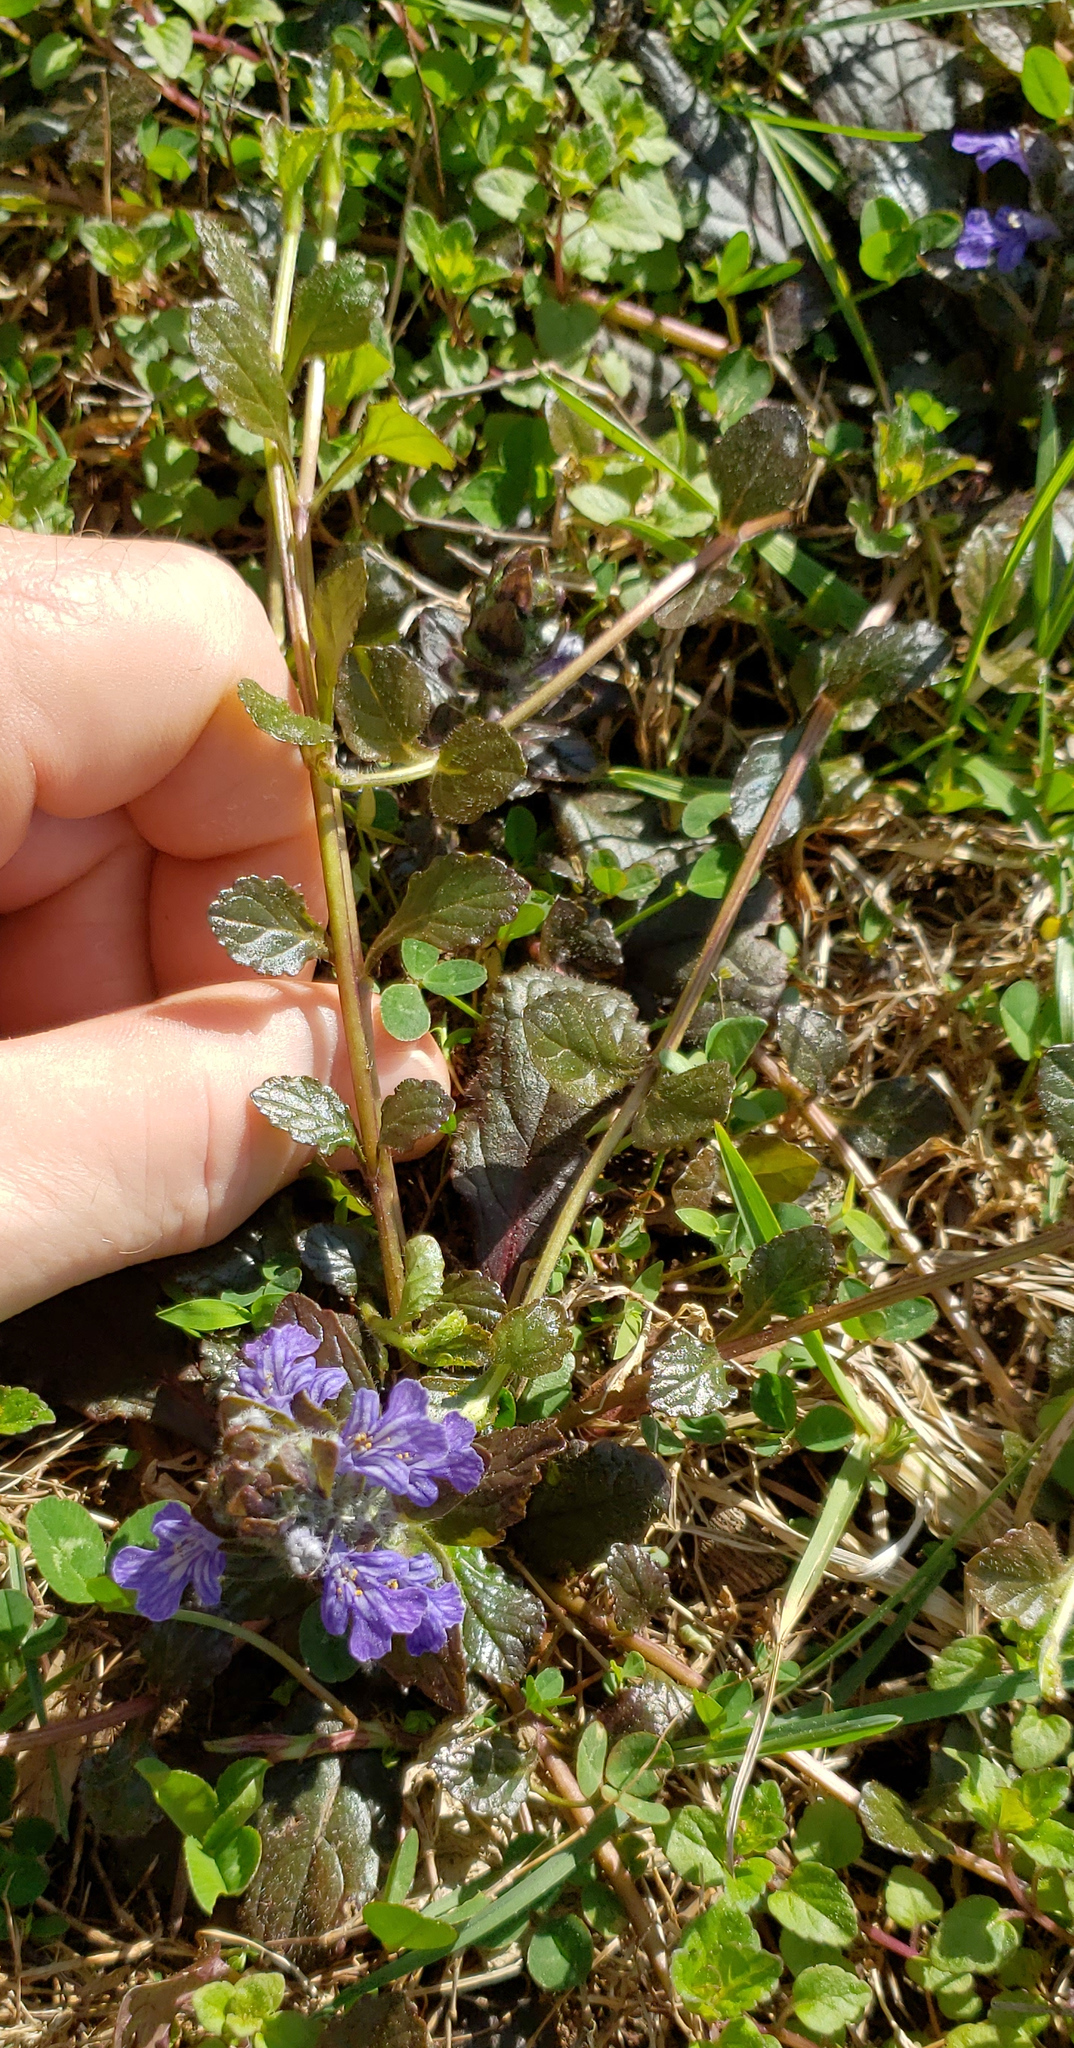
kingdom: Plantae
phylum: Tracheophyta
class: Magnoliopsida
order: Lamiales
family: Lamiaceae
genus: Ajuga
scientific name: Ajuga reptans
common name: Bugle
